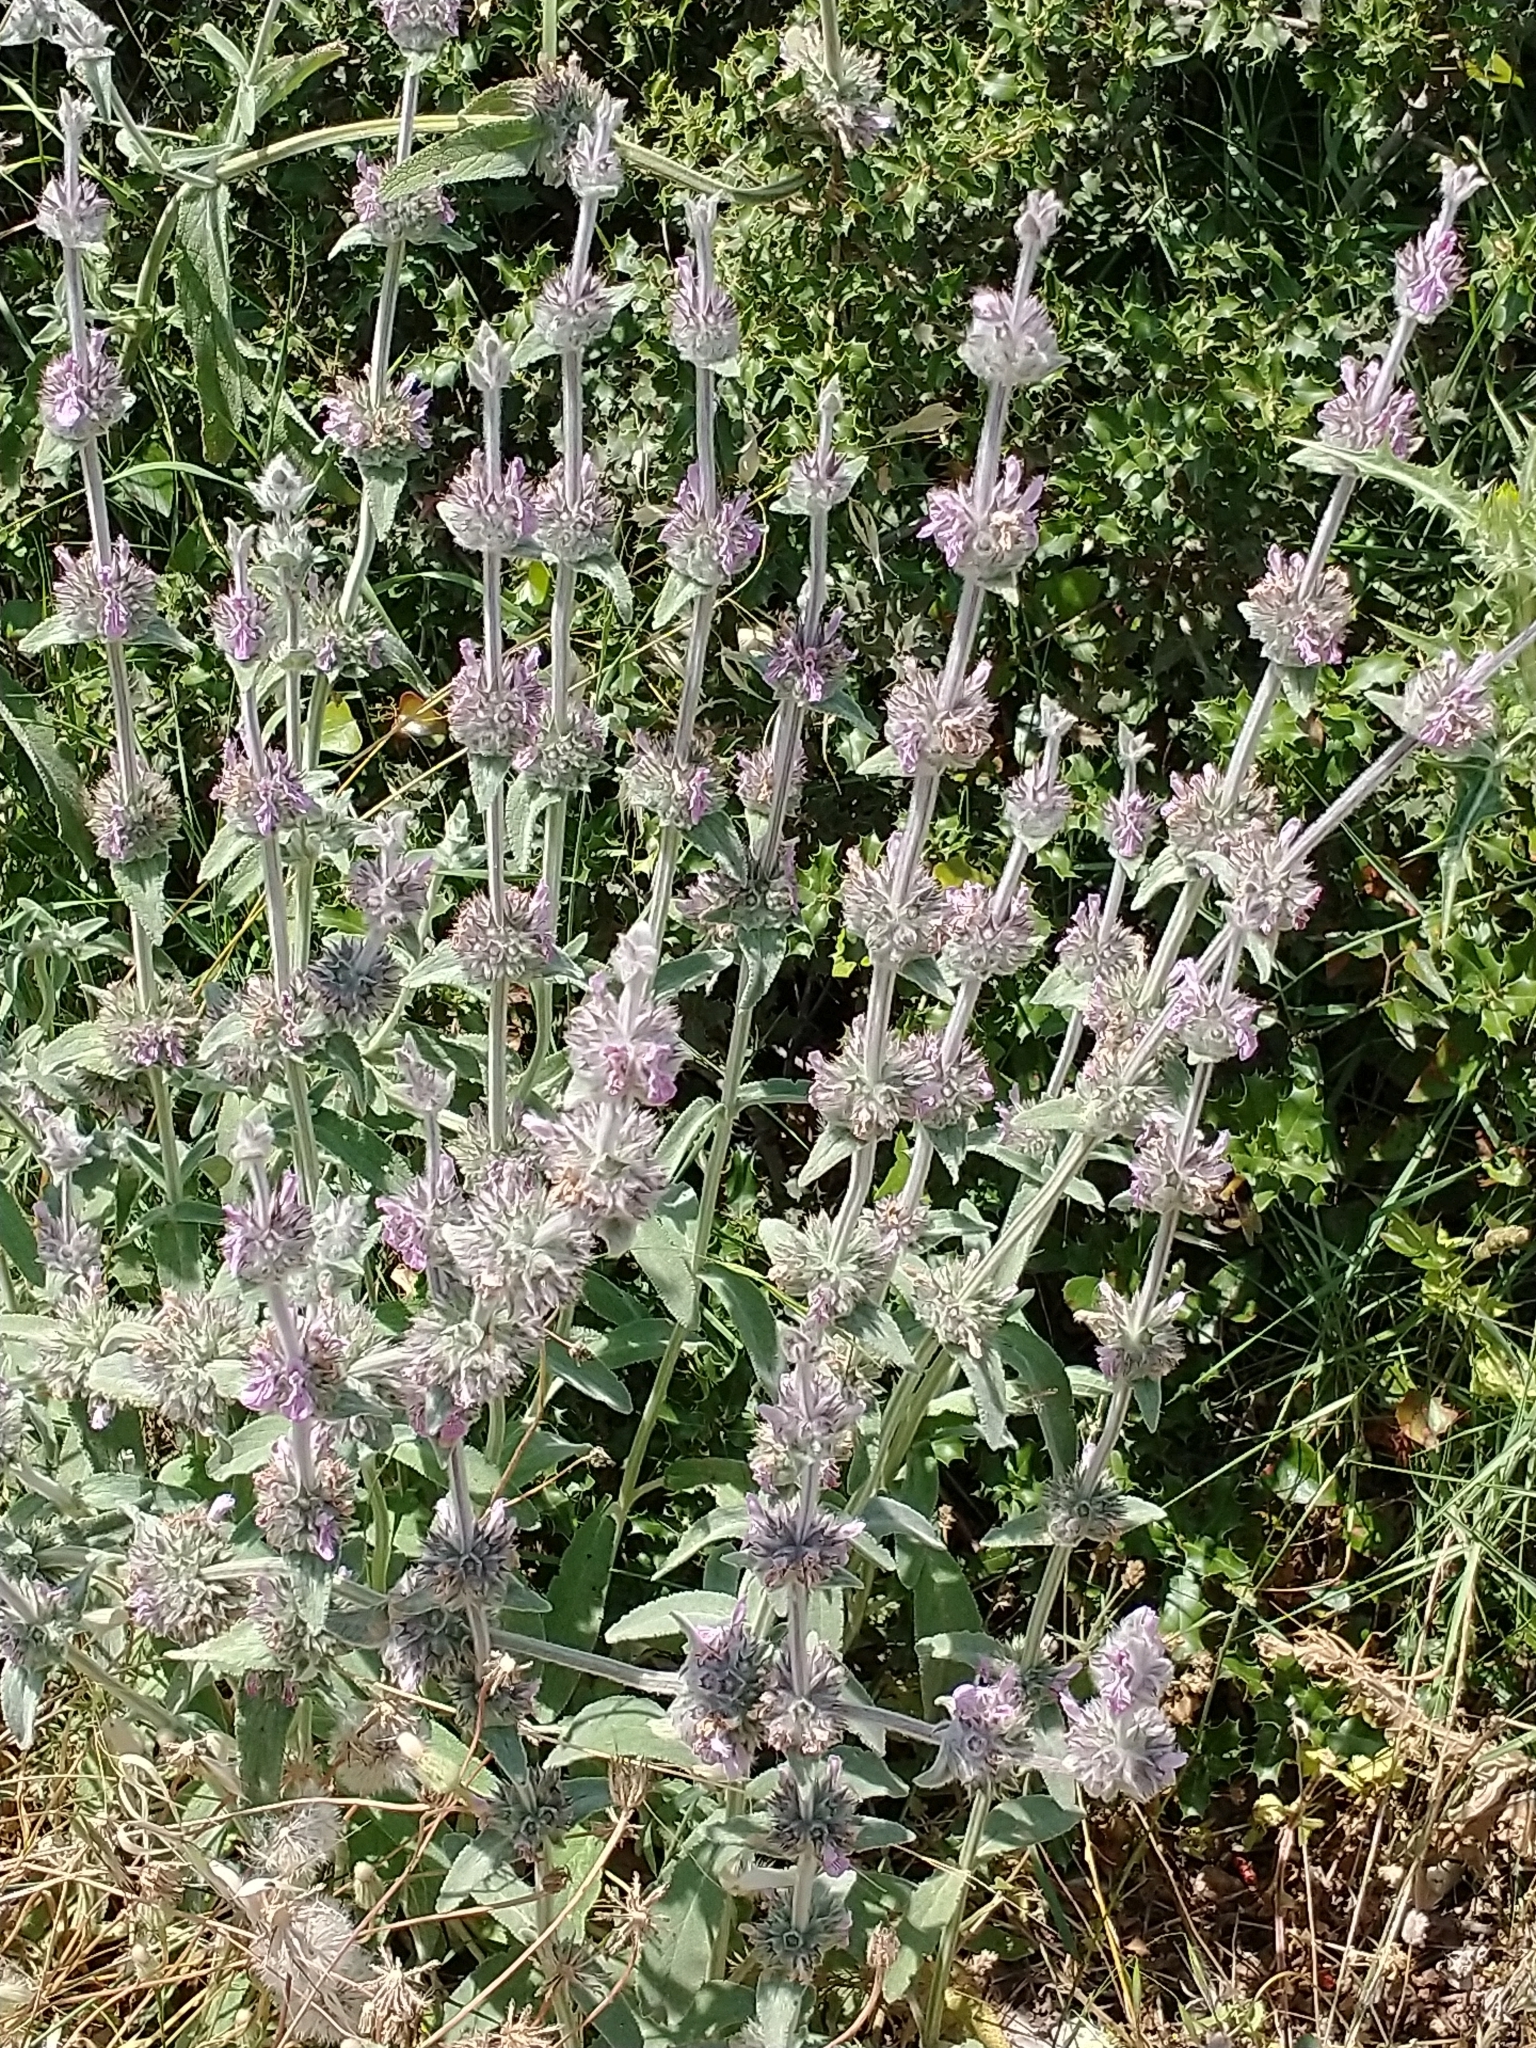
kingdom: Plantae
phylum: Tracheophyta
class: Magnoliopsida
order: Lamiales
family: Lamiaceae
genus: Stachys
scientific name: Stachys cretica
